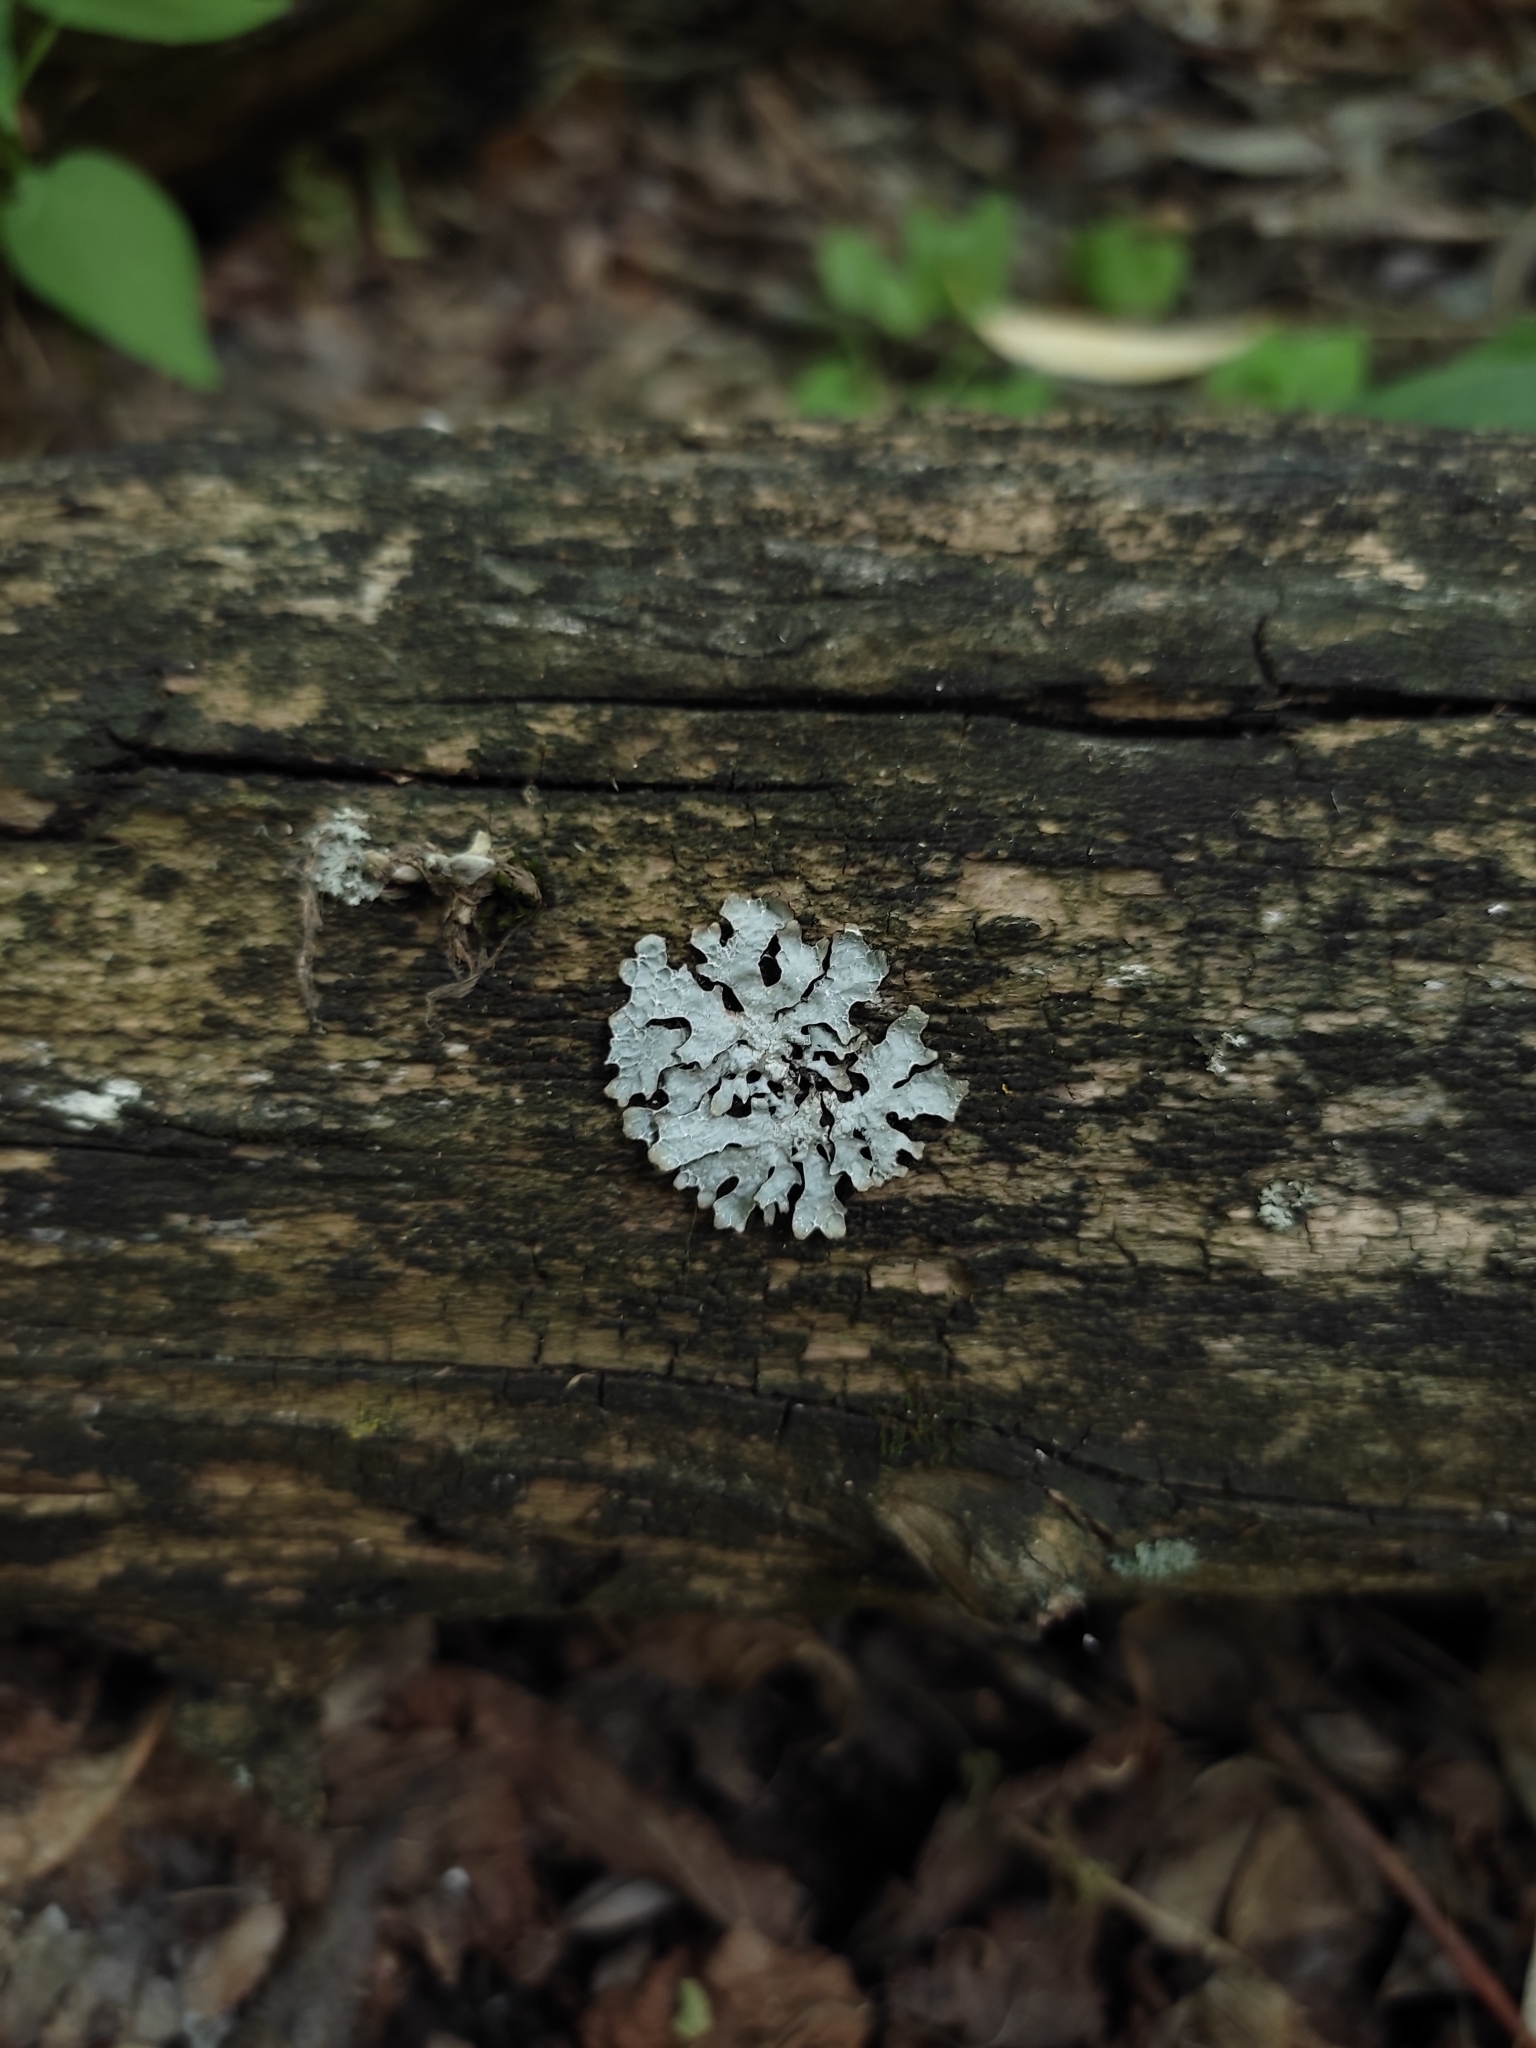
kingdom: Fungi
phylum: Ascomycota
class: Lecanoromycetes
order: Lecanorales
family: Parmeliaceae
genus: Parmelia
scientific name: Parmelia sulcata
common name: Netted shield lichen
